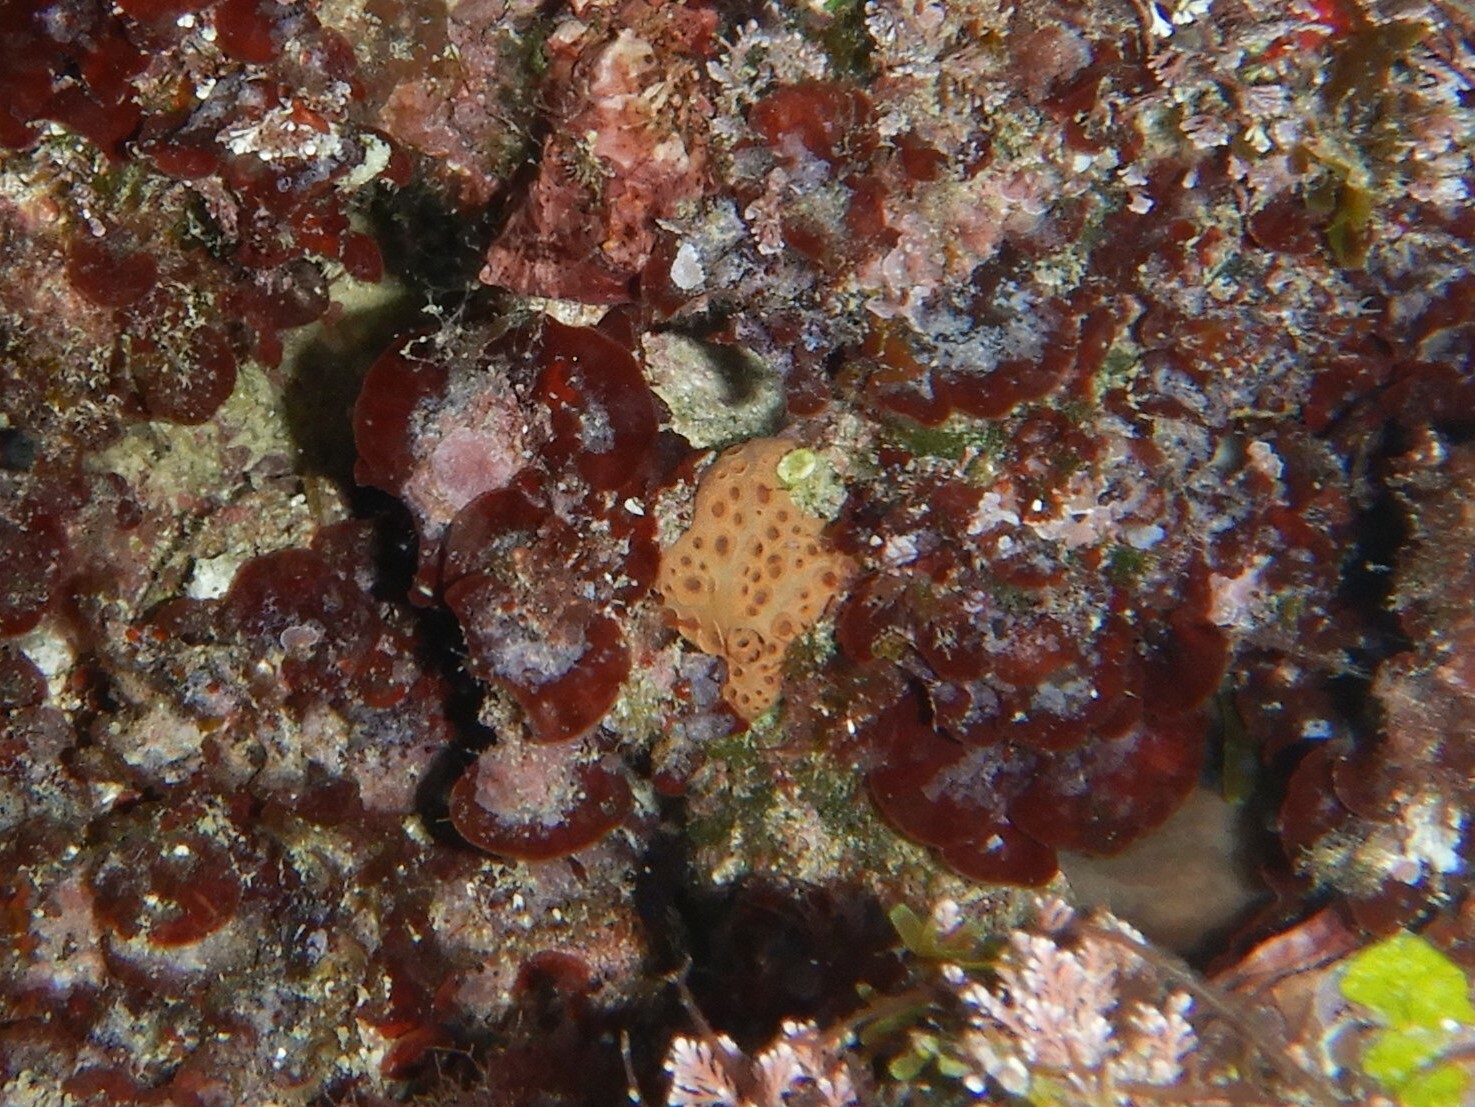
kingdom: Animalia
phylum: Porifera
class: Demospongiae
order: Poecilosclerida
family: Hymedesmiidae
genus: Hemimycale
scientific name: Hemimycale columella
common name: Crater sponge
